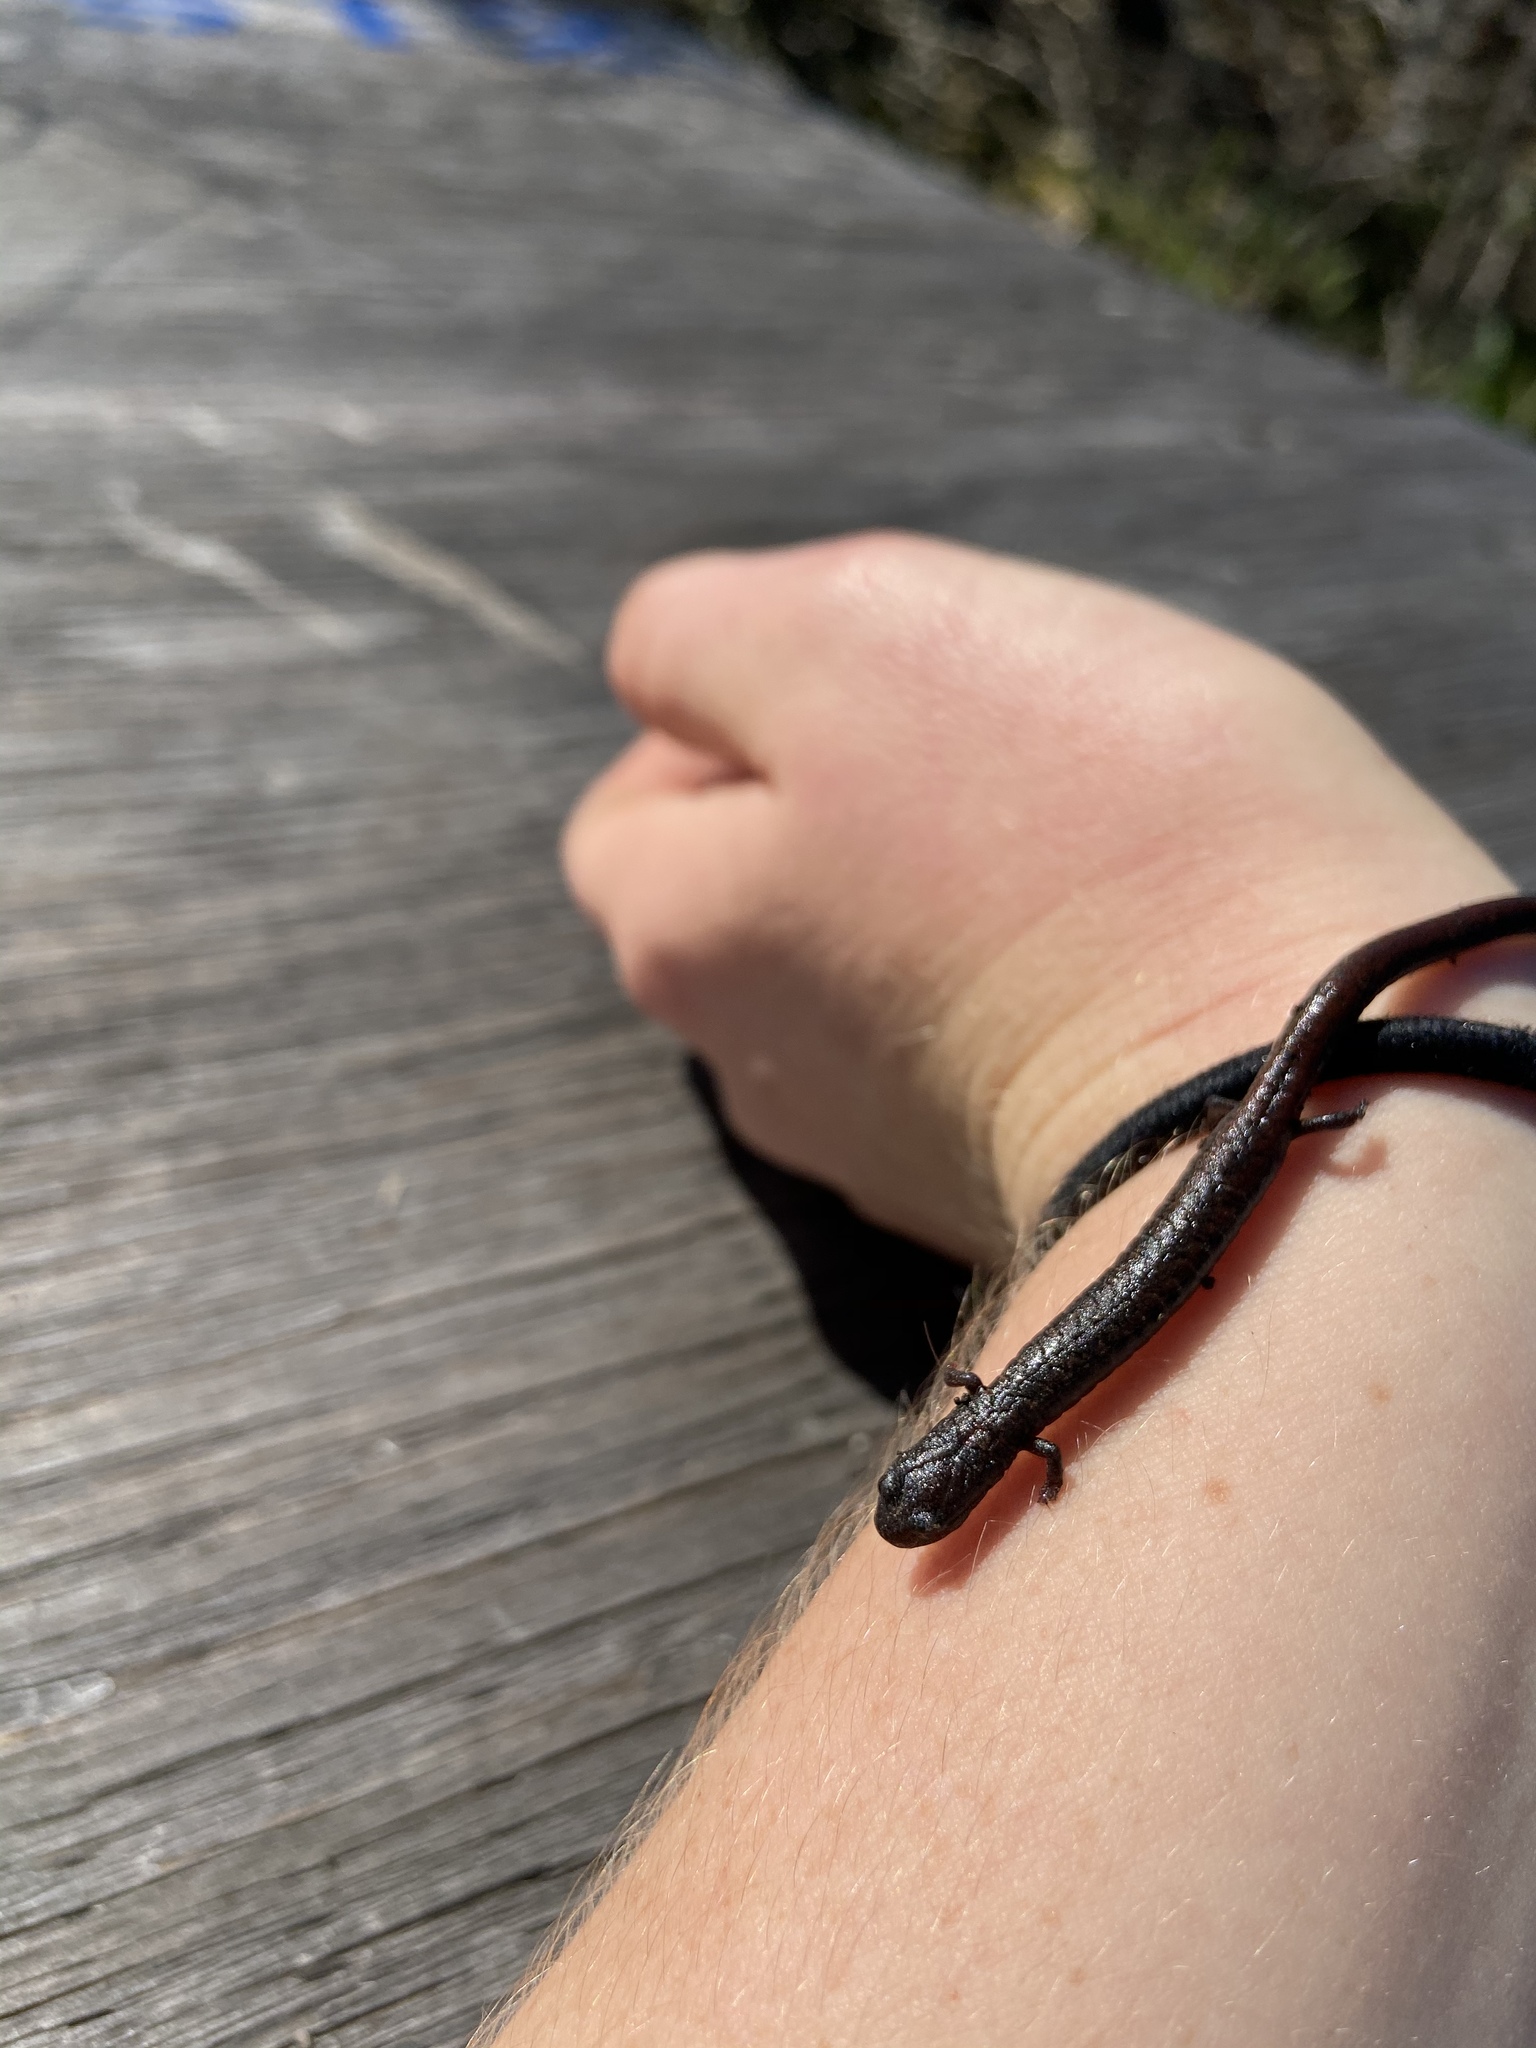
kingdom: Animalia
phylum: Chordata
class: Amphibia
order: Caudata
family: Plethodontidae
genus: Batrachoseps
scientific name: Batrachoseps attenuatus
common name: California slender salamander
